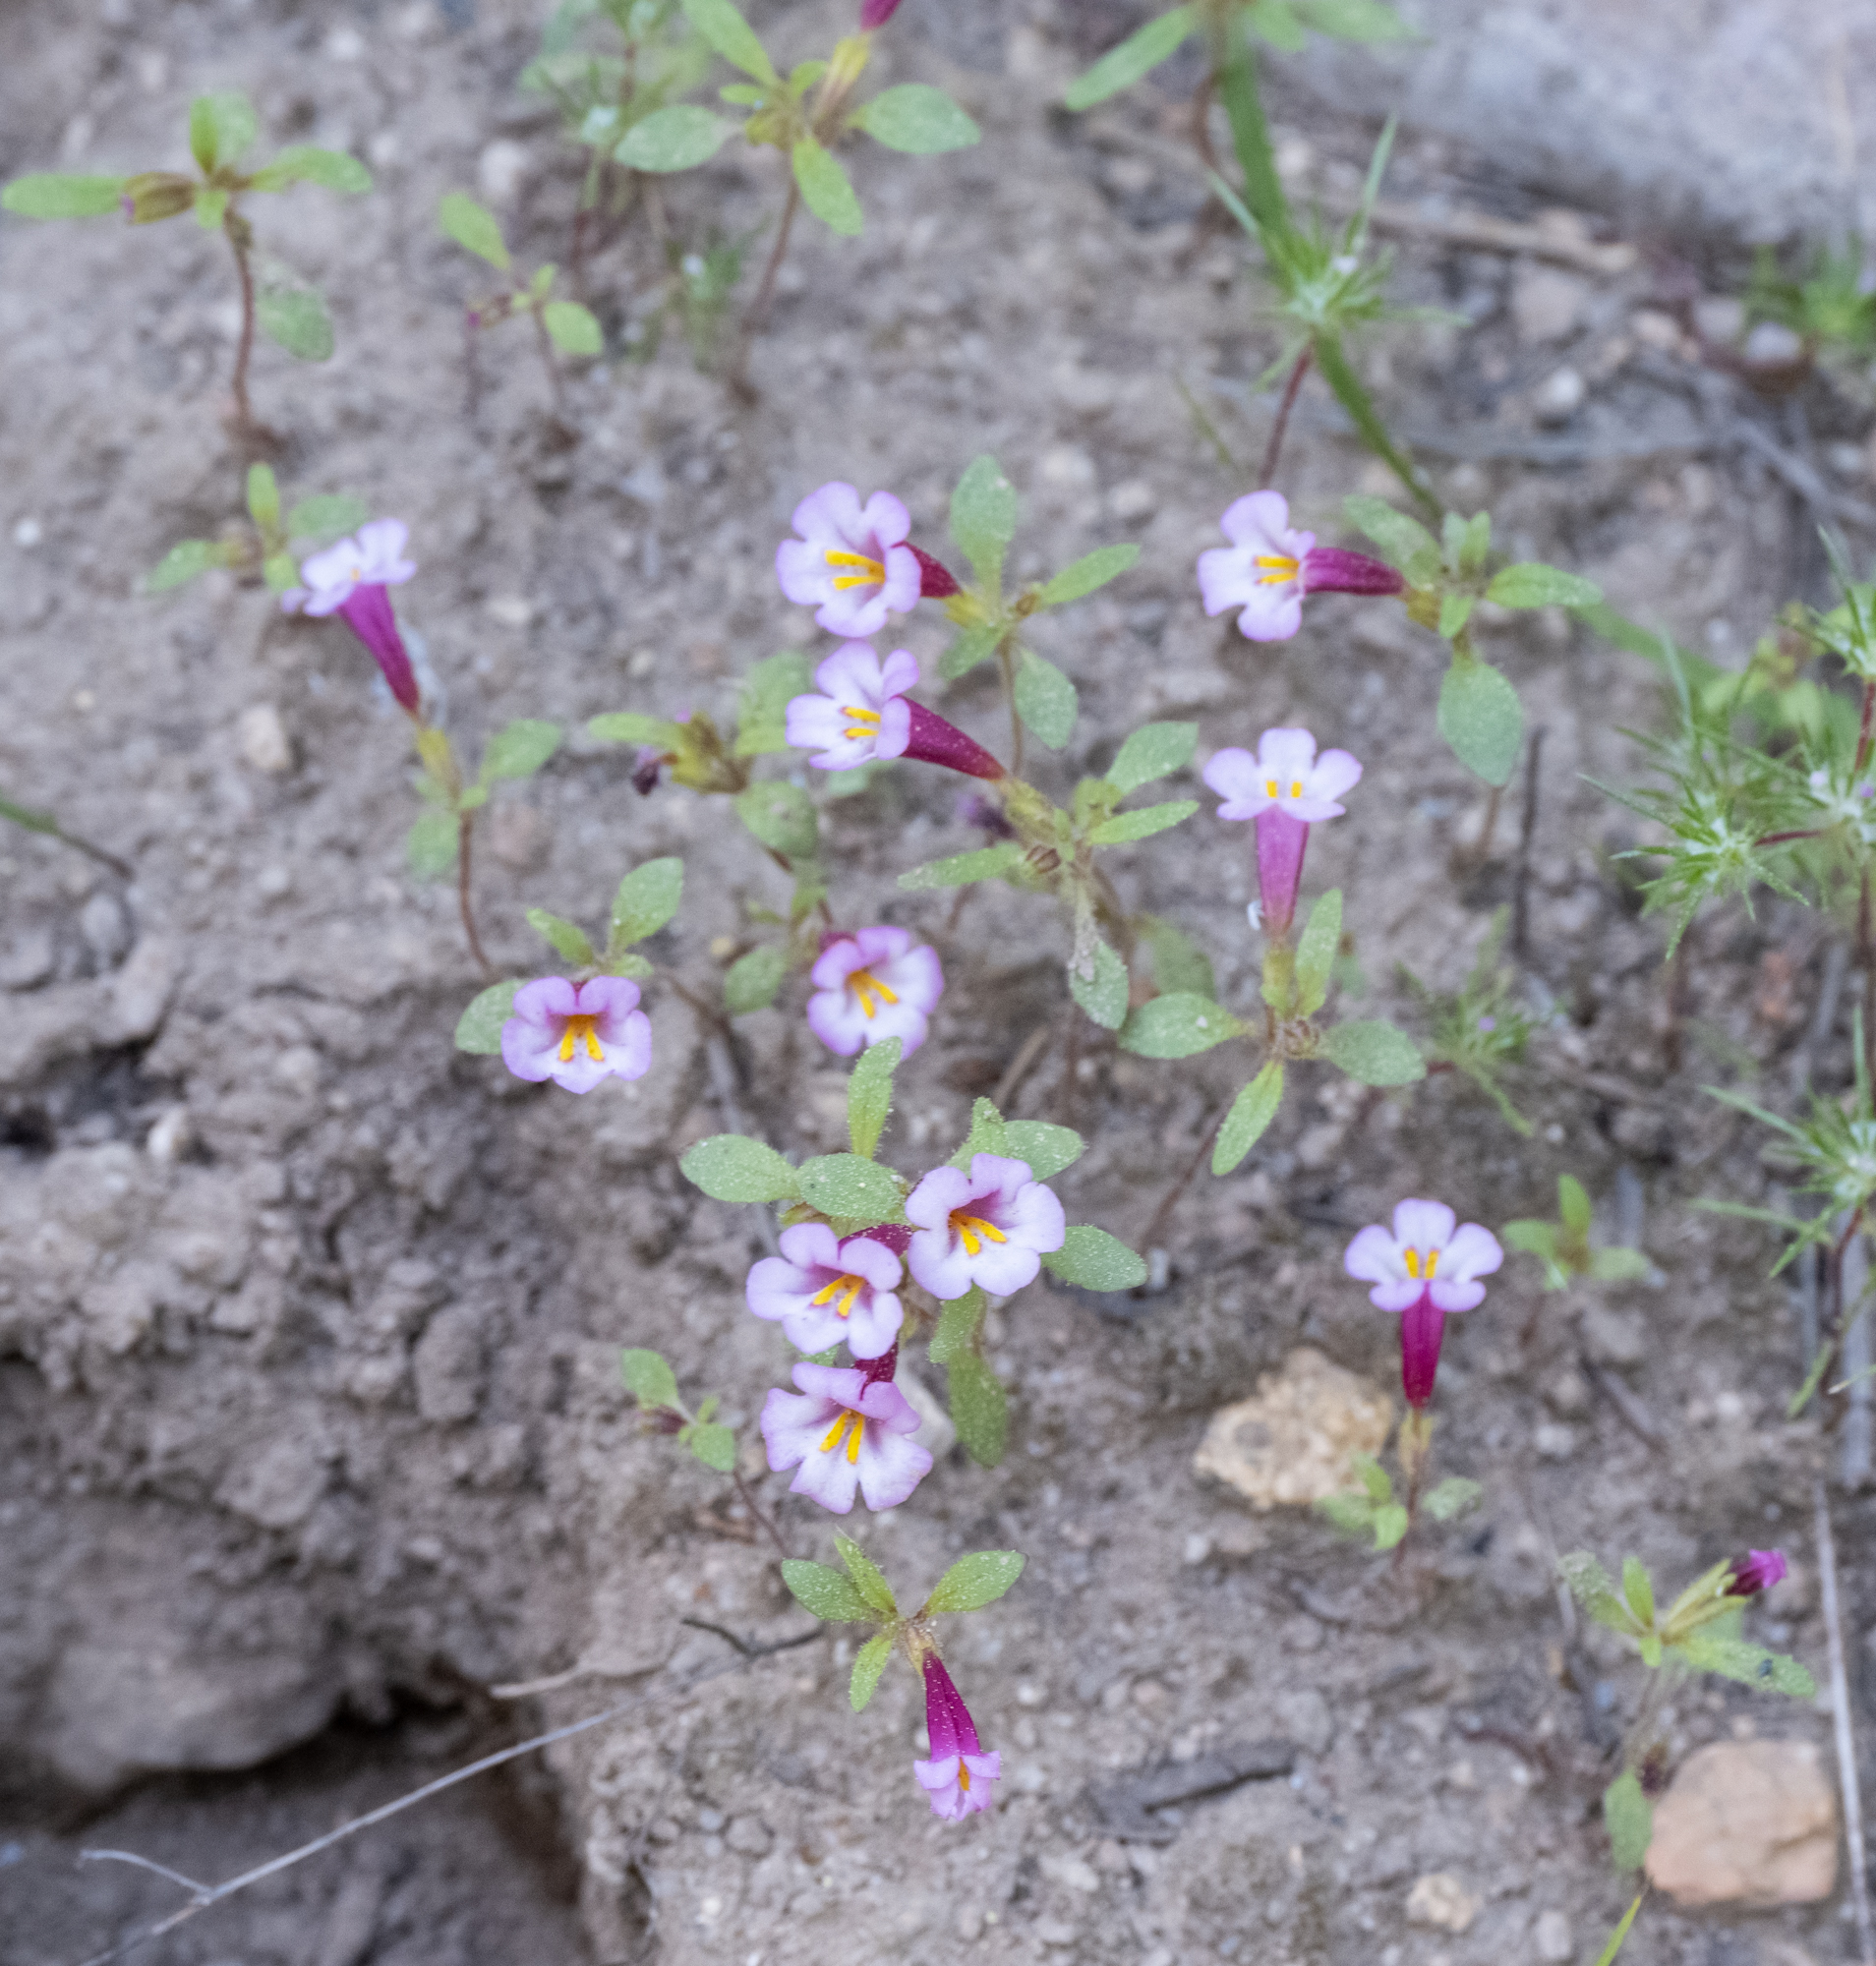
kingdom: Plantae
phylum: Tracheophyta
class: Magnoliopsida
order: Lamiales
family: Phrymaceae
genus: Diplacus
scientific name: Diplacus torreyi
